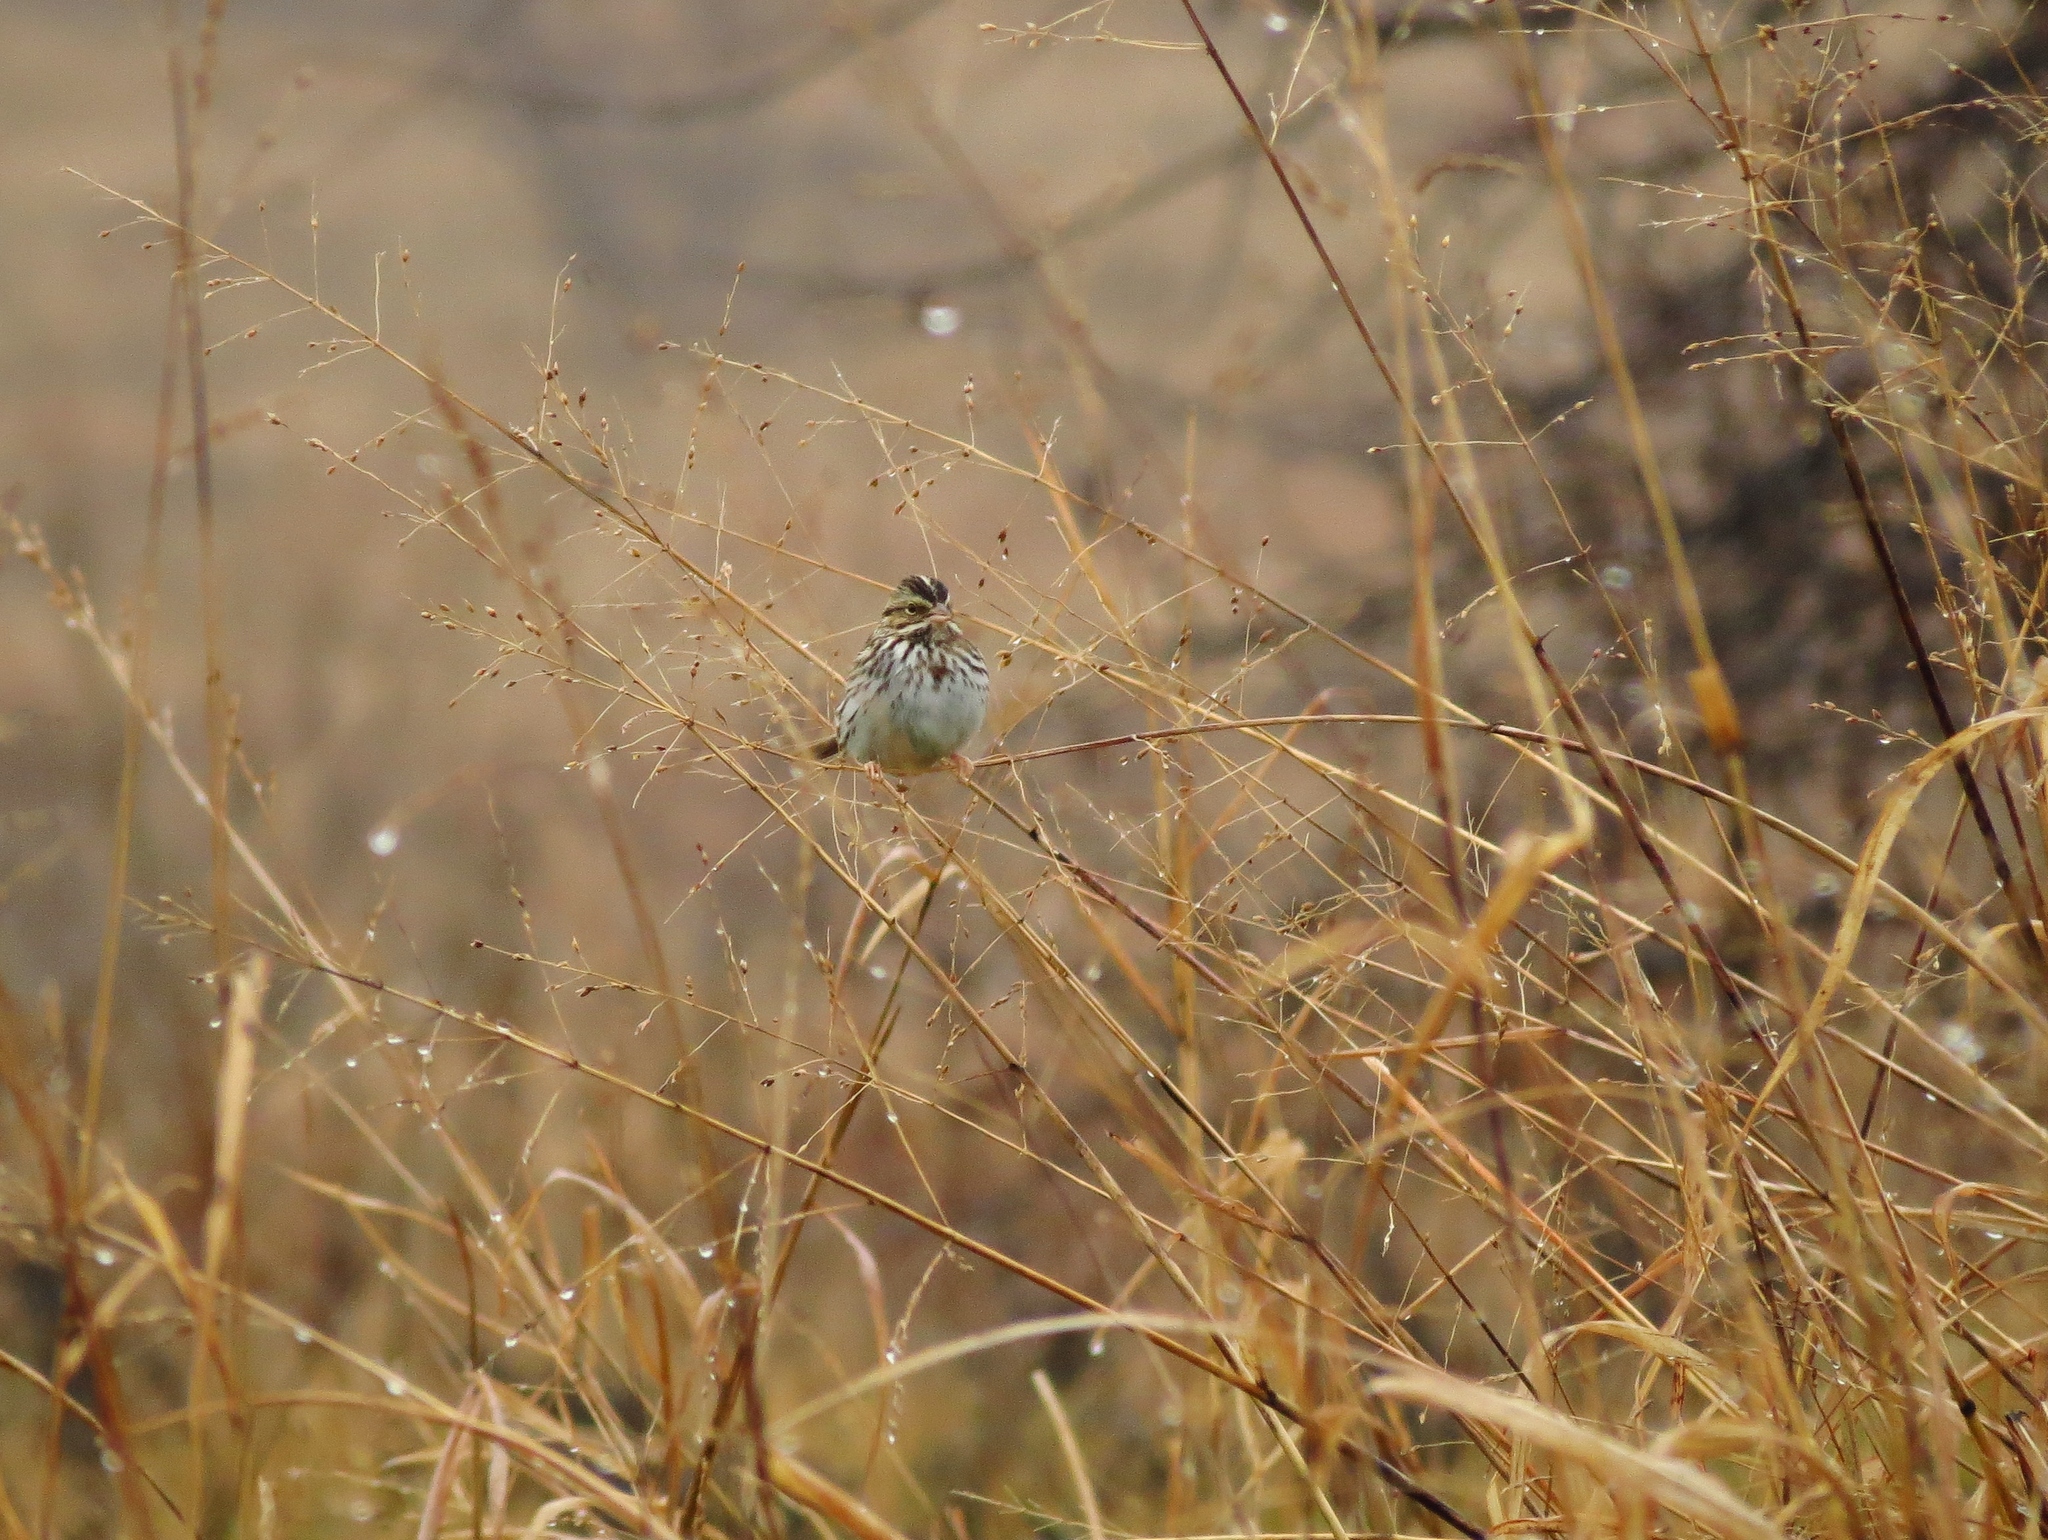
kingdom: Animalia
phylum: Chordata
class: Aves
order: Passeriformes
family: Passerellidae
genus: Passerculus
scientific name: Passerculus sandwichensis
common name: Savannah sparrow
